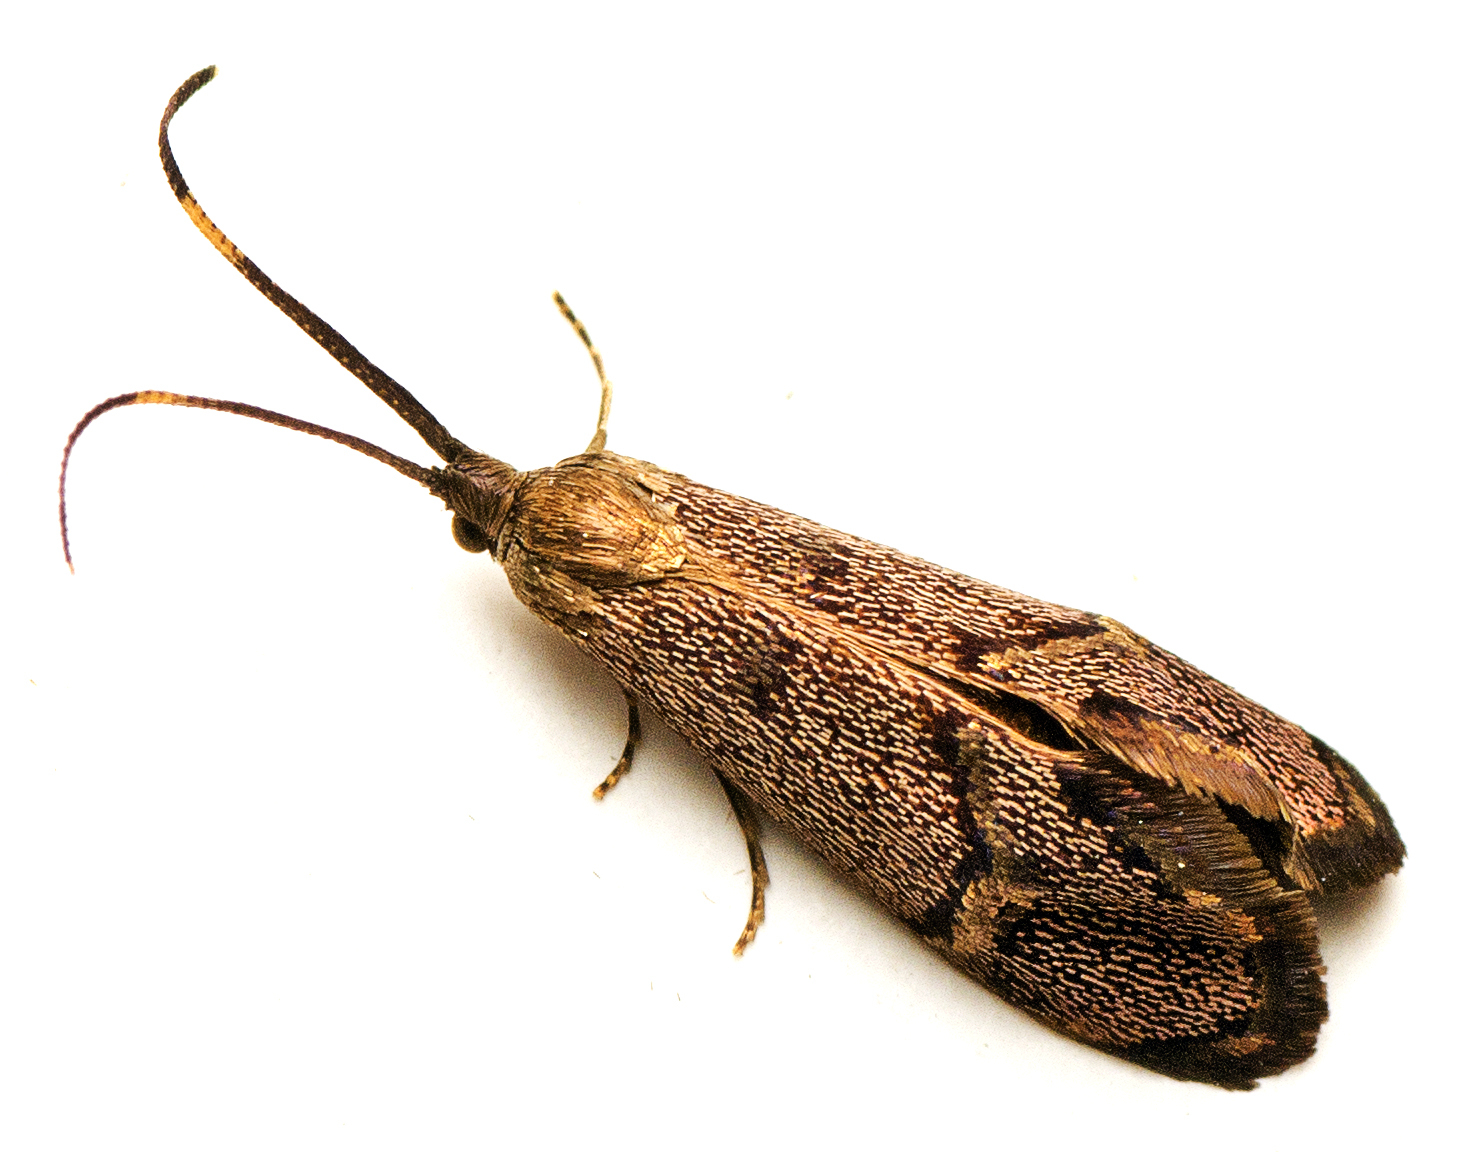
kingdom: Animalia
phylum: Arthropoda
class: Insecta
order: Lepidoptera
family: Psychidae
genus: Piestoceros
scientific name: Piestoceros conjunctella
